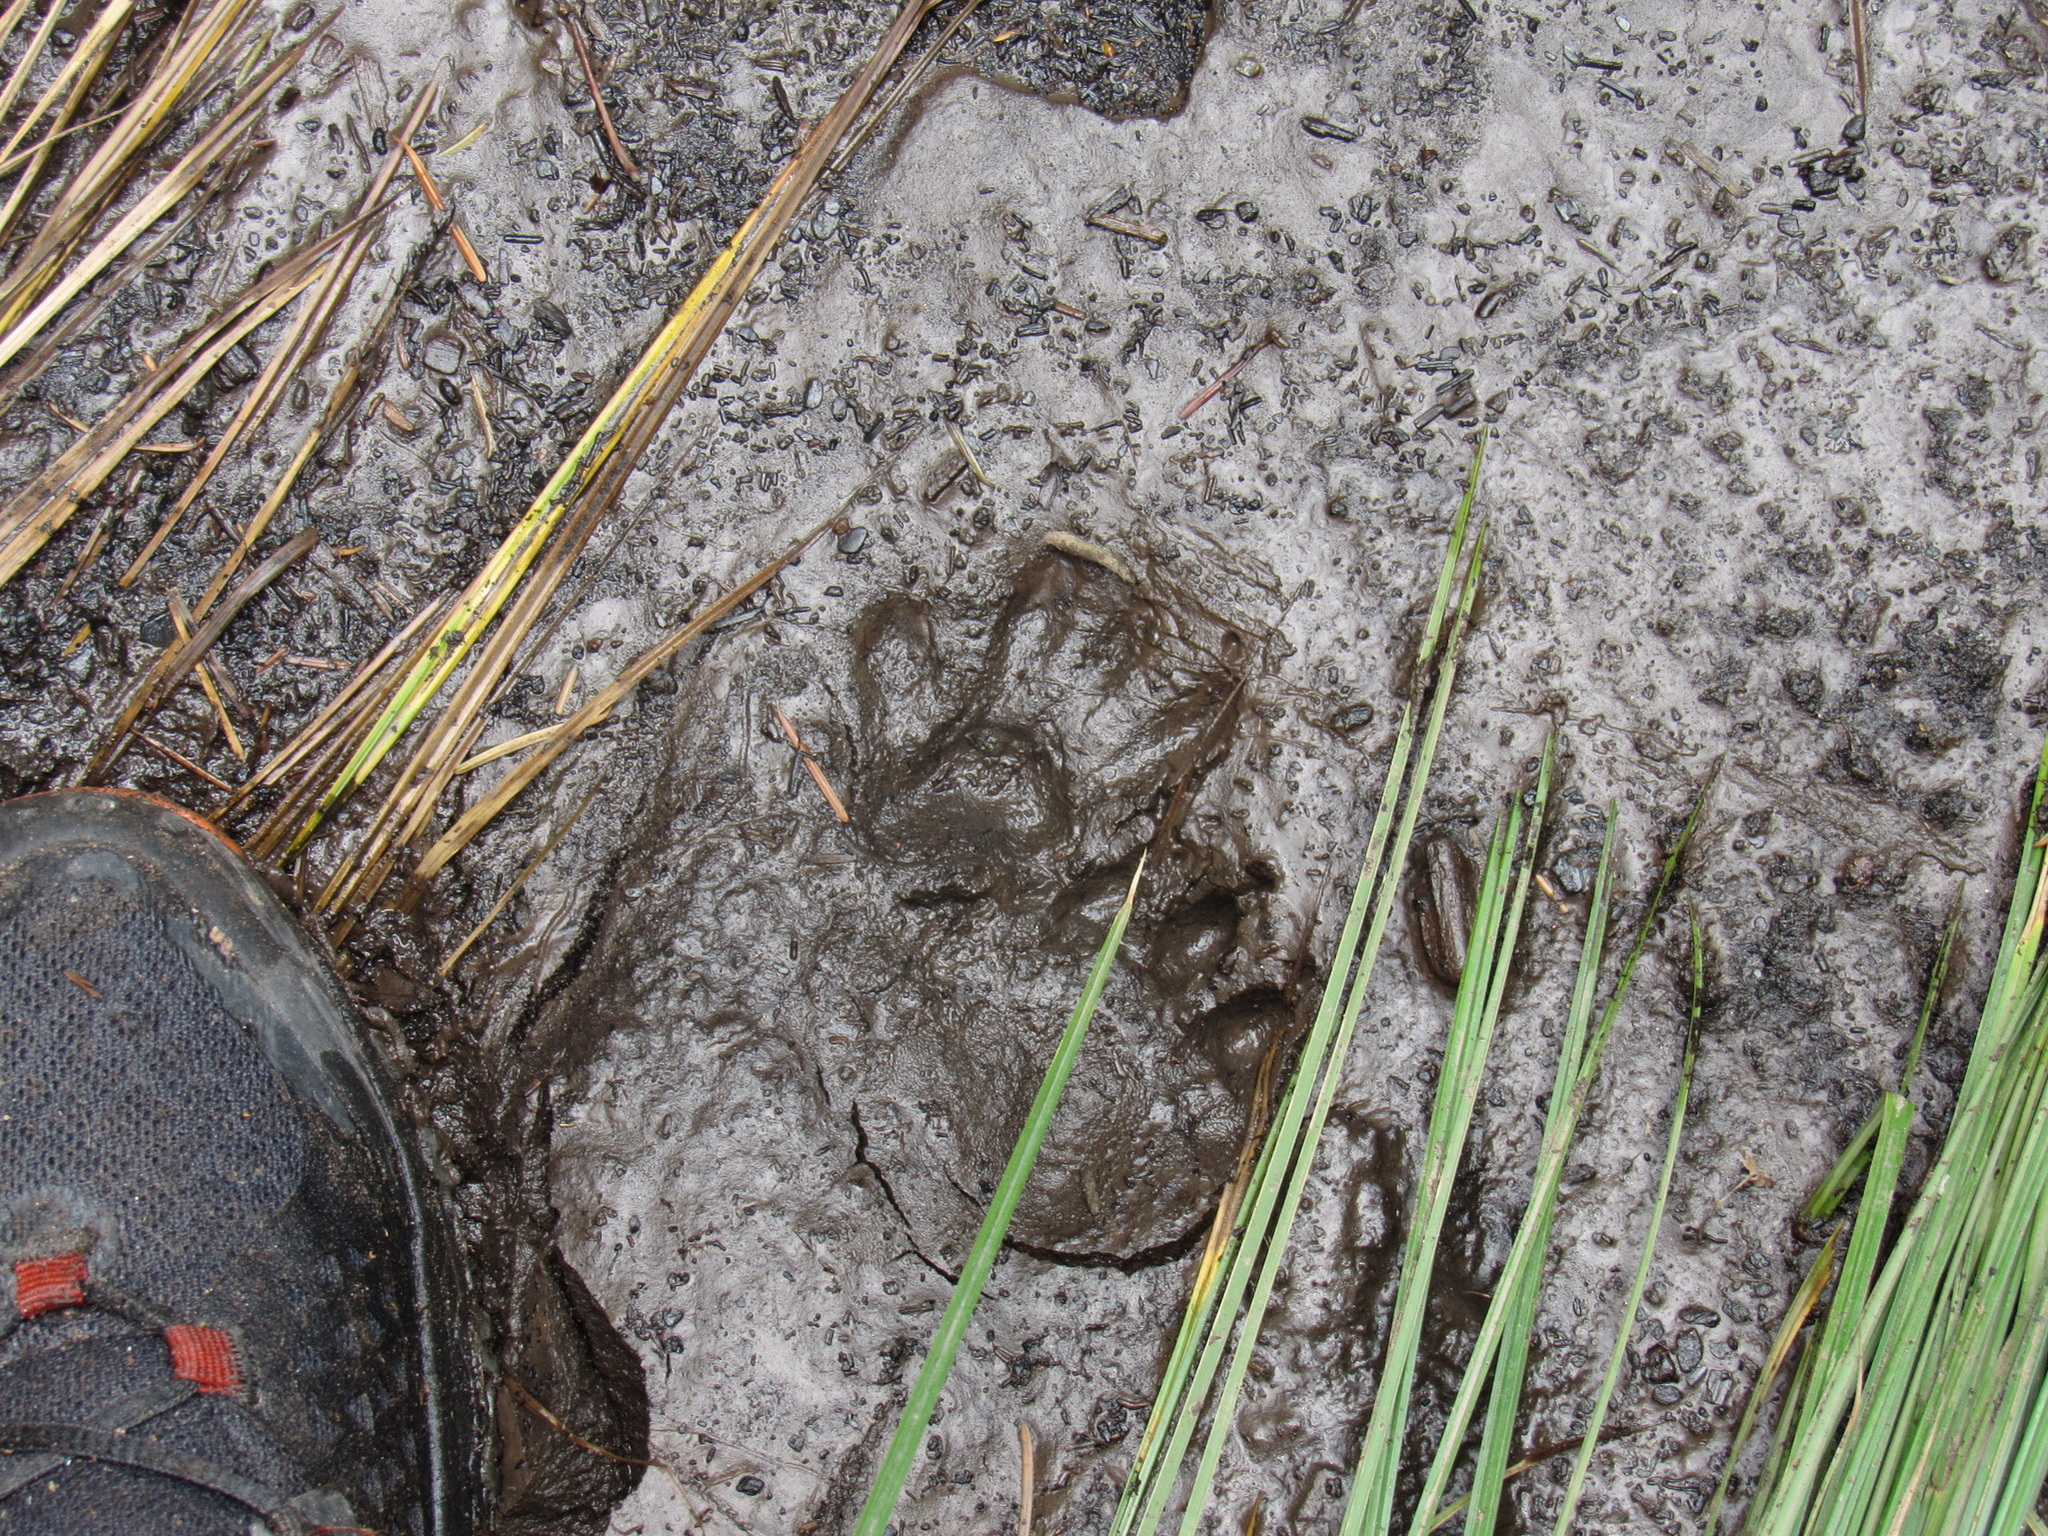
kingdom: Animalia
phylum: Chordata
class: Mammalia
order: Carnivora
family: Procyonidae
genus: Procyon
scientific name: Procyon lotor
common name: Raccoon
